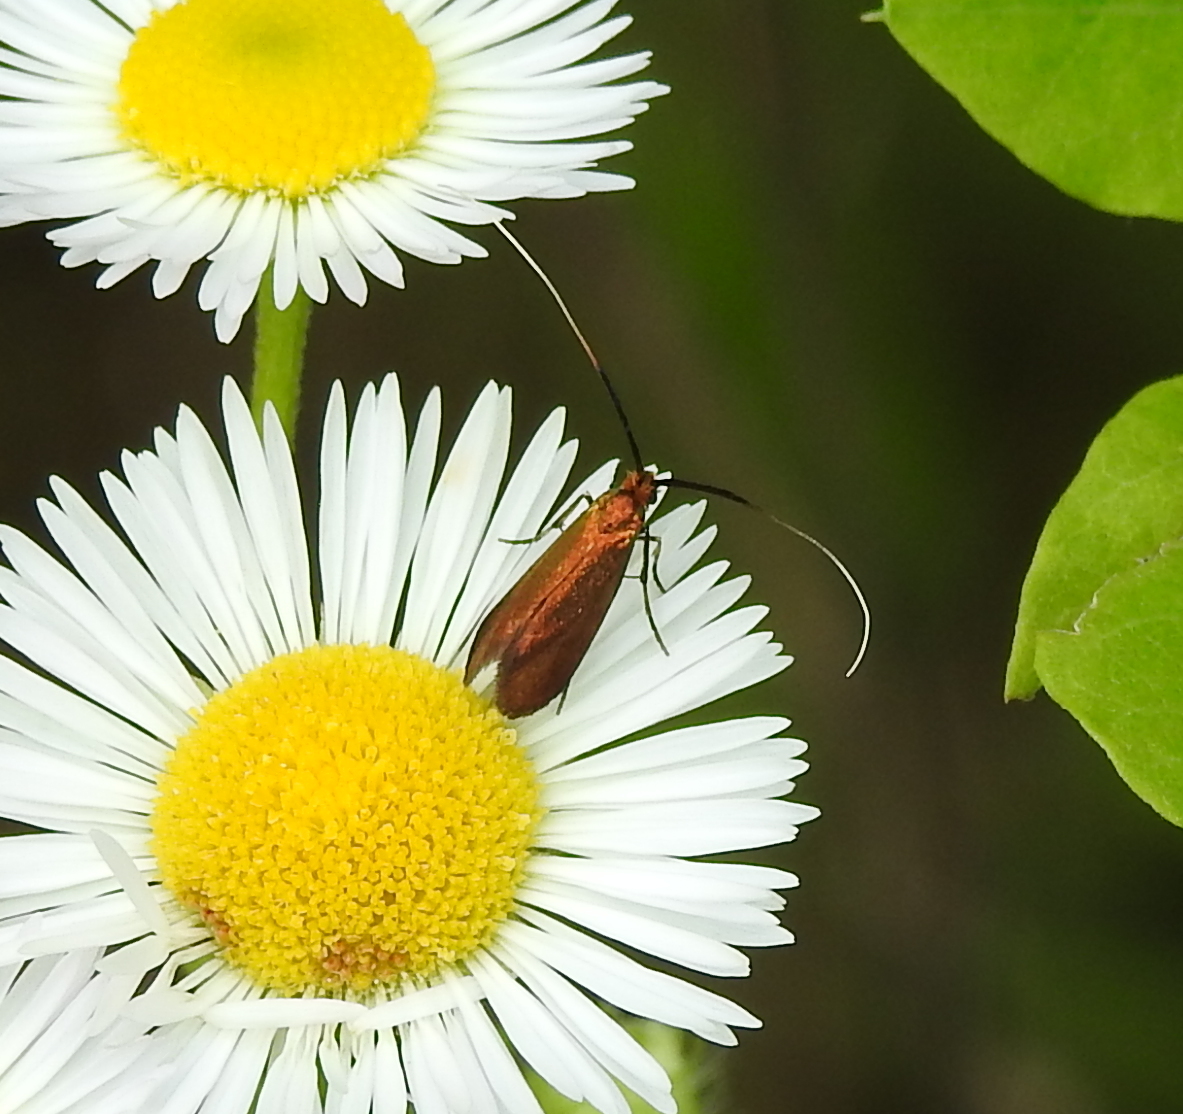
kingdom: Animalia
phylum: Arthropoda
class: Insecta
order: Lepidoptera
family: Adelidae
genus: Adela
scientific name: Adela violella
